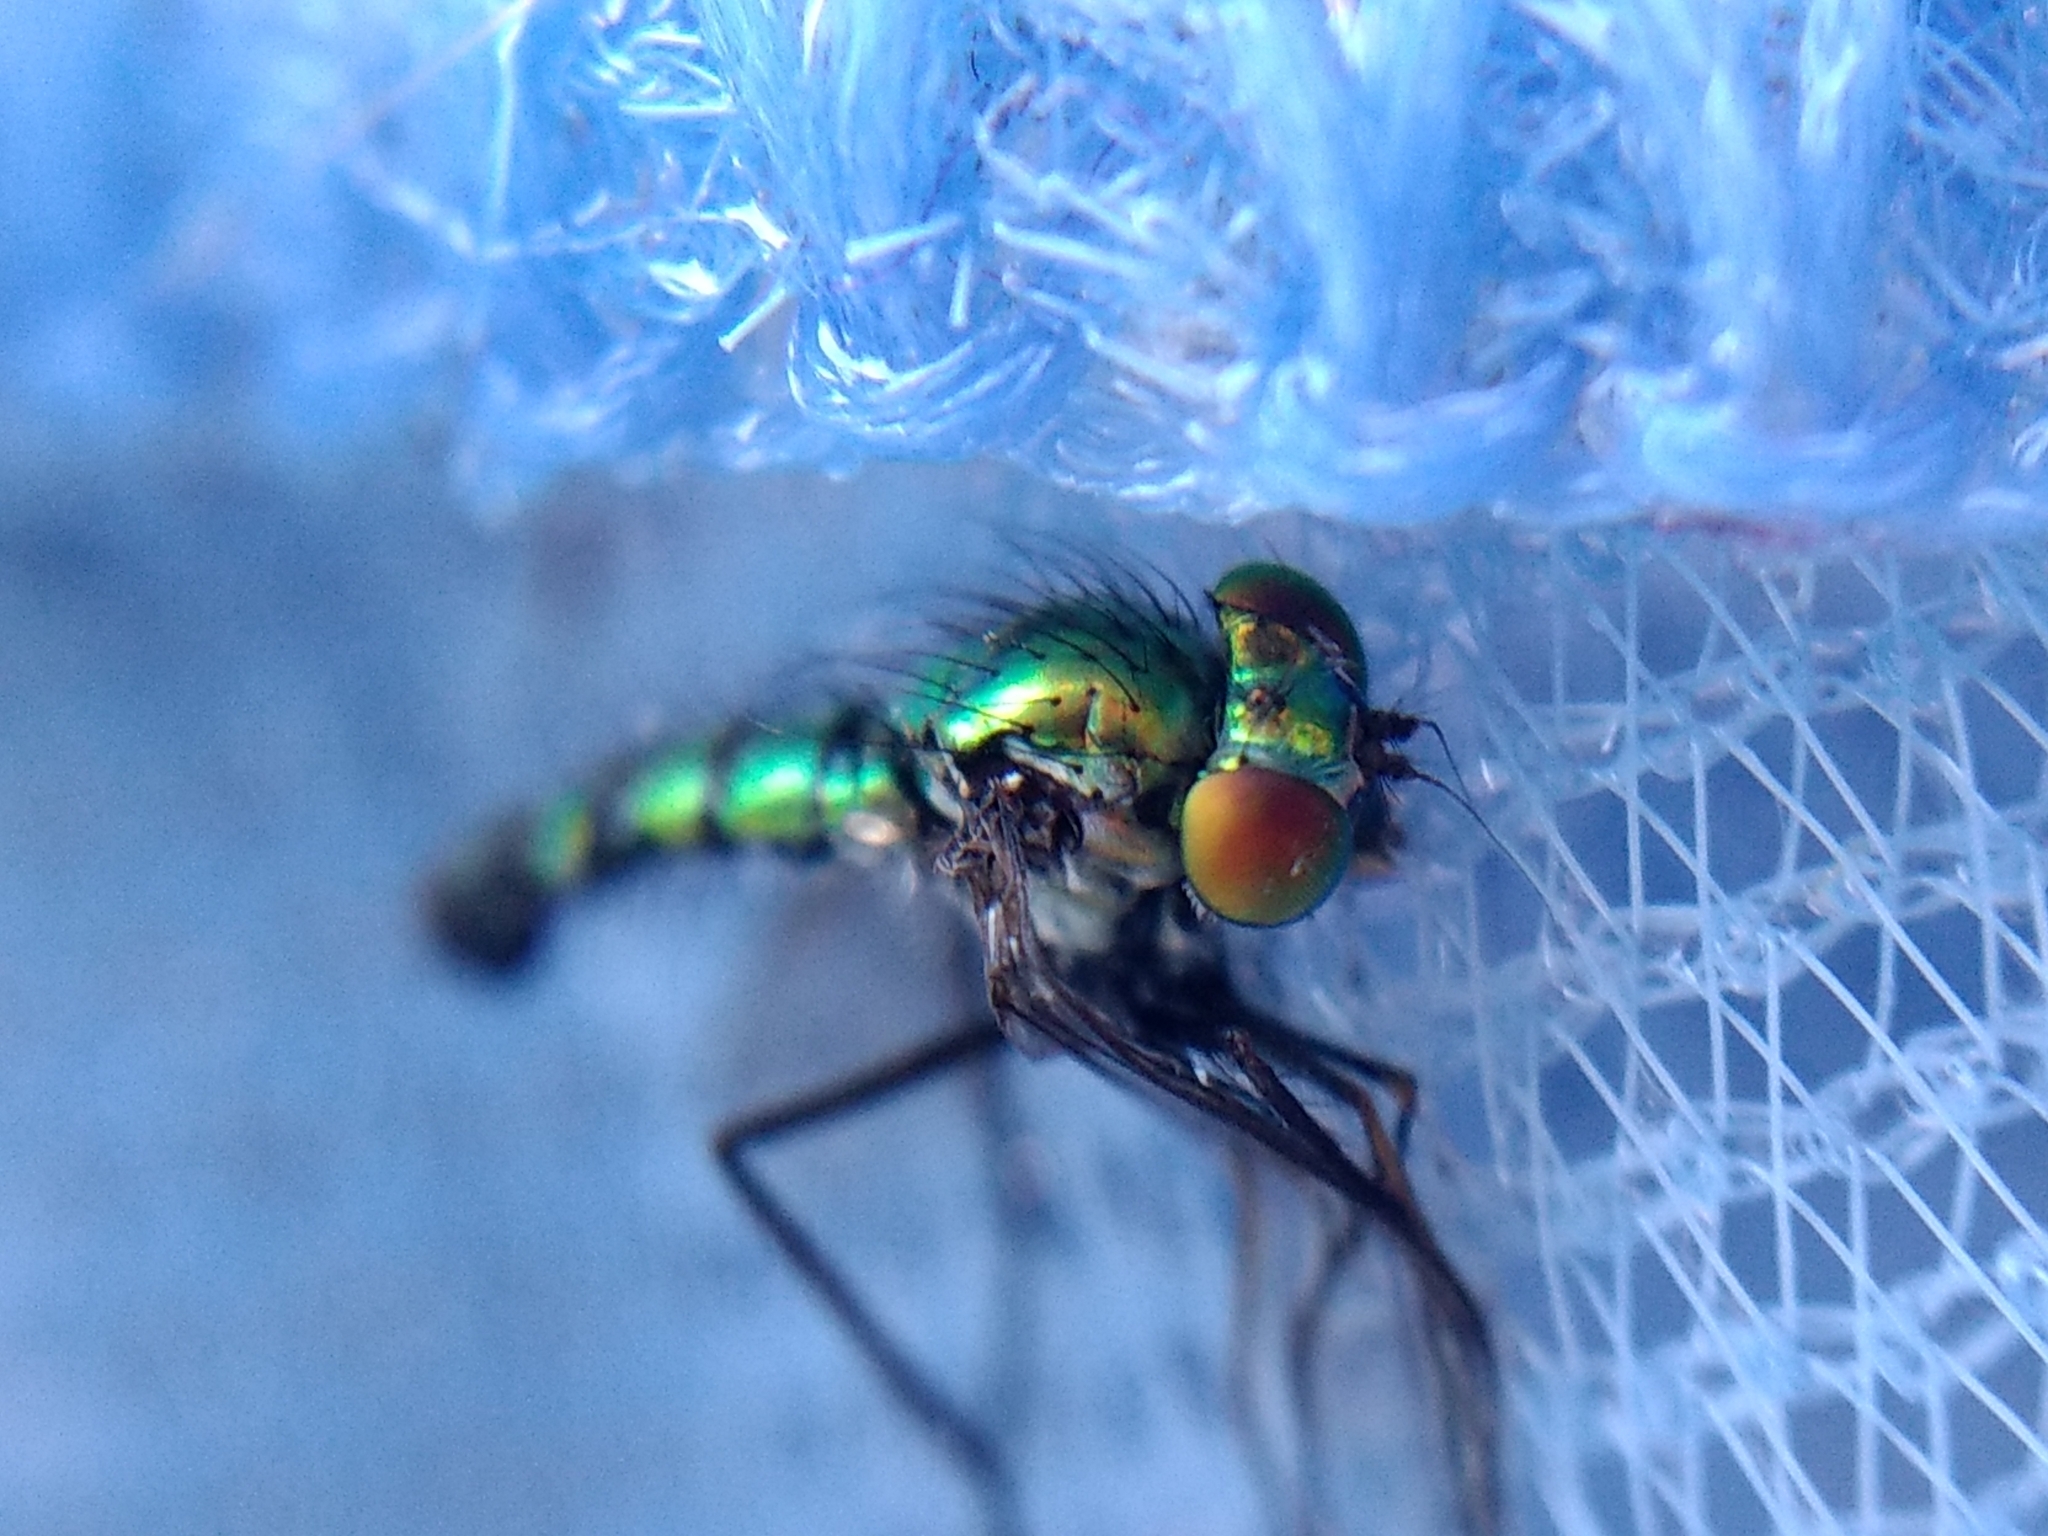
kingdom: Animalia
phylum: Arthropoda
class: Insecta
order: Diptera
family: Dolichopodidae
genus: Condylostylus
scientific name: Condylostylus longicornis
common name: Long-legged fly
